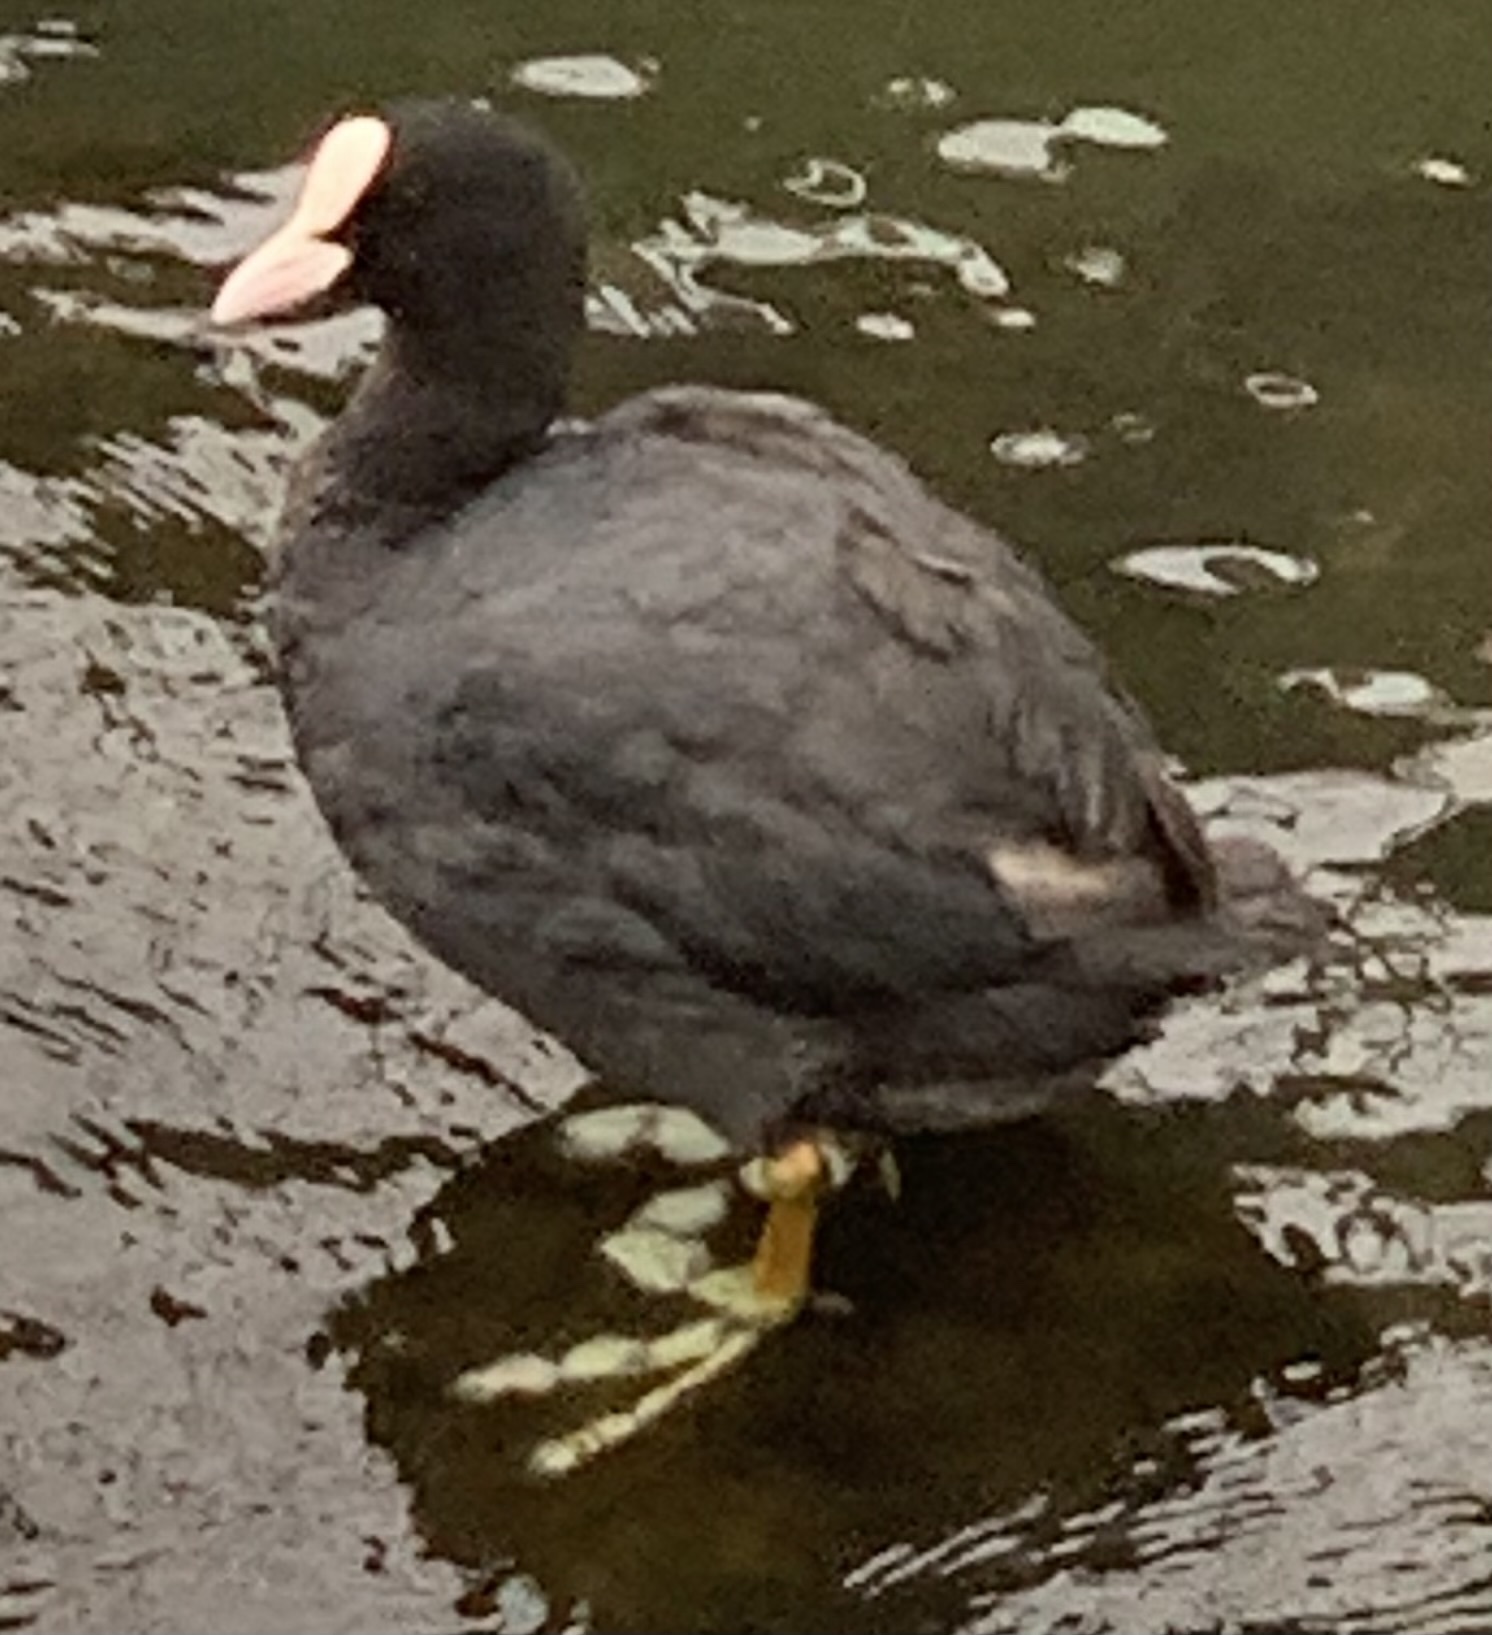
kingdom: Animalia
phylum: Chordata
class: Aves
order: Gruiformes
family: Rallidae
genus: Fulica
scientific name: Fulica atra
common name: Eurasian coot
